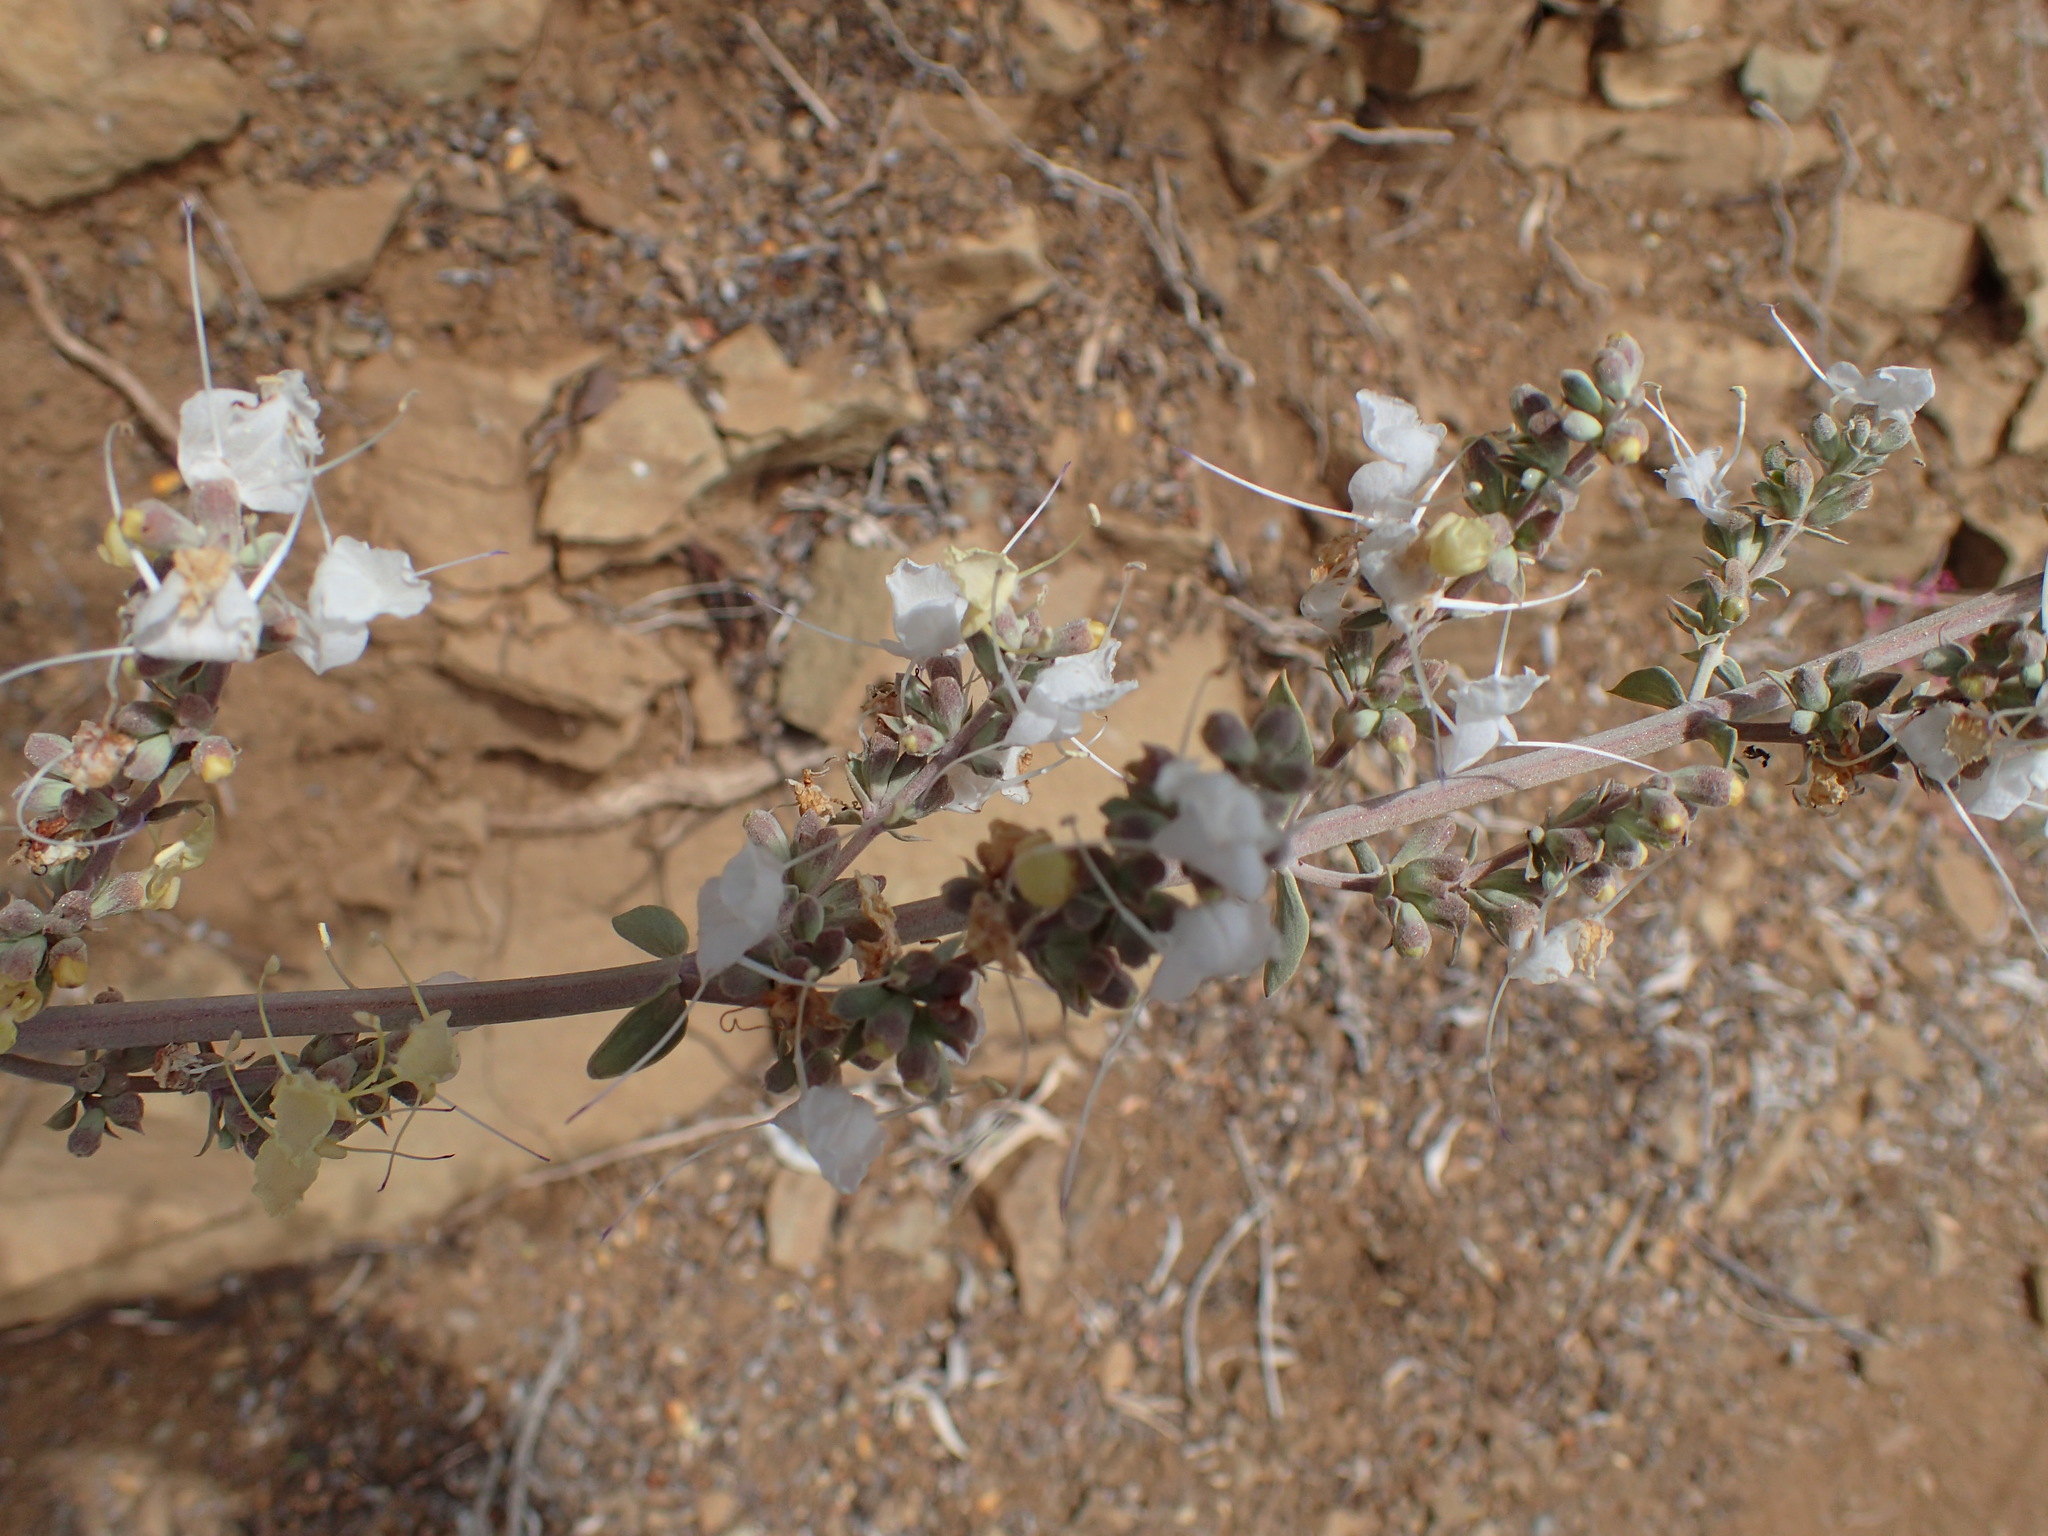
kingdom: Plantae
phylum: Tracheophyta
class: Magnoliopsida
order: Lamiales
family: Lamiaceae
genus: Salvia
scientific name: Salvia apiana
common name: White sage
